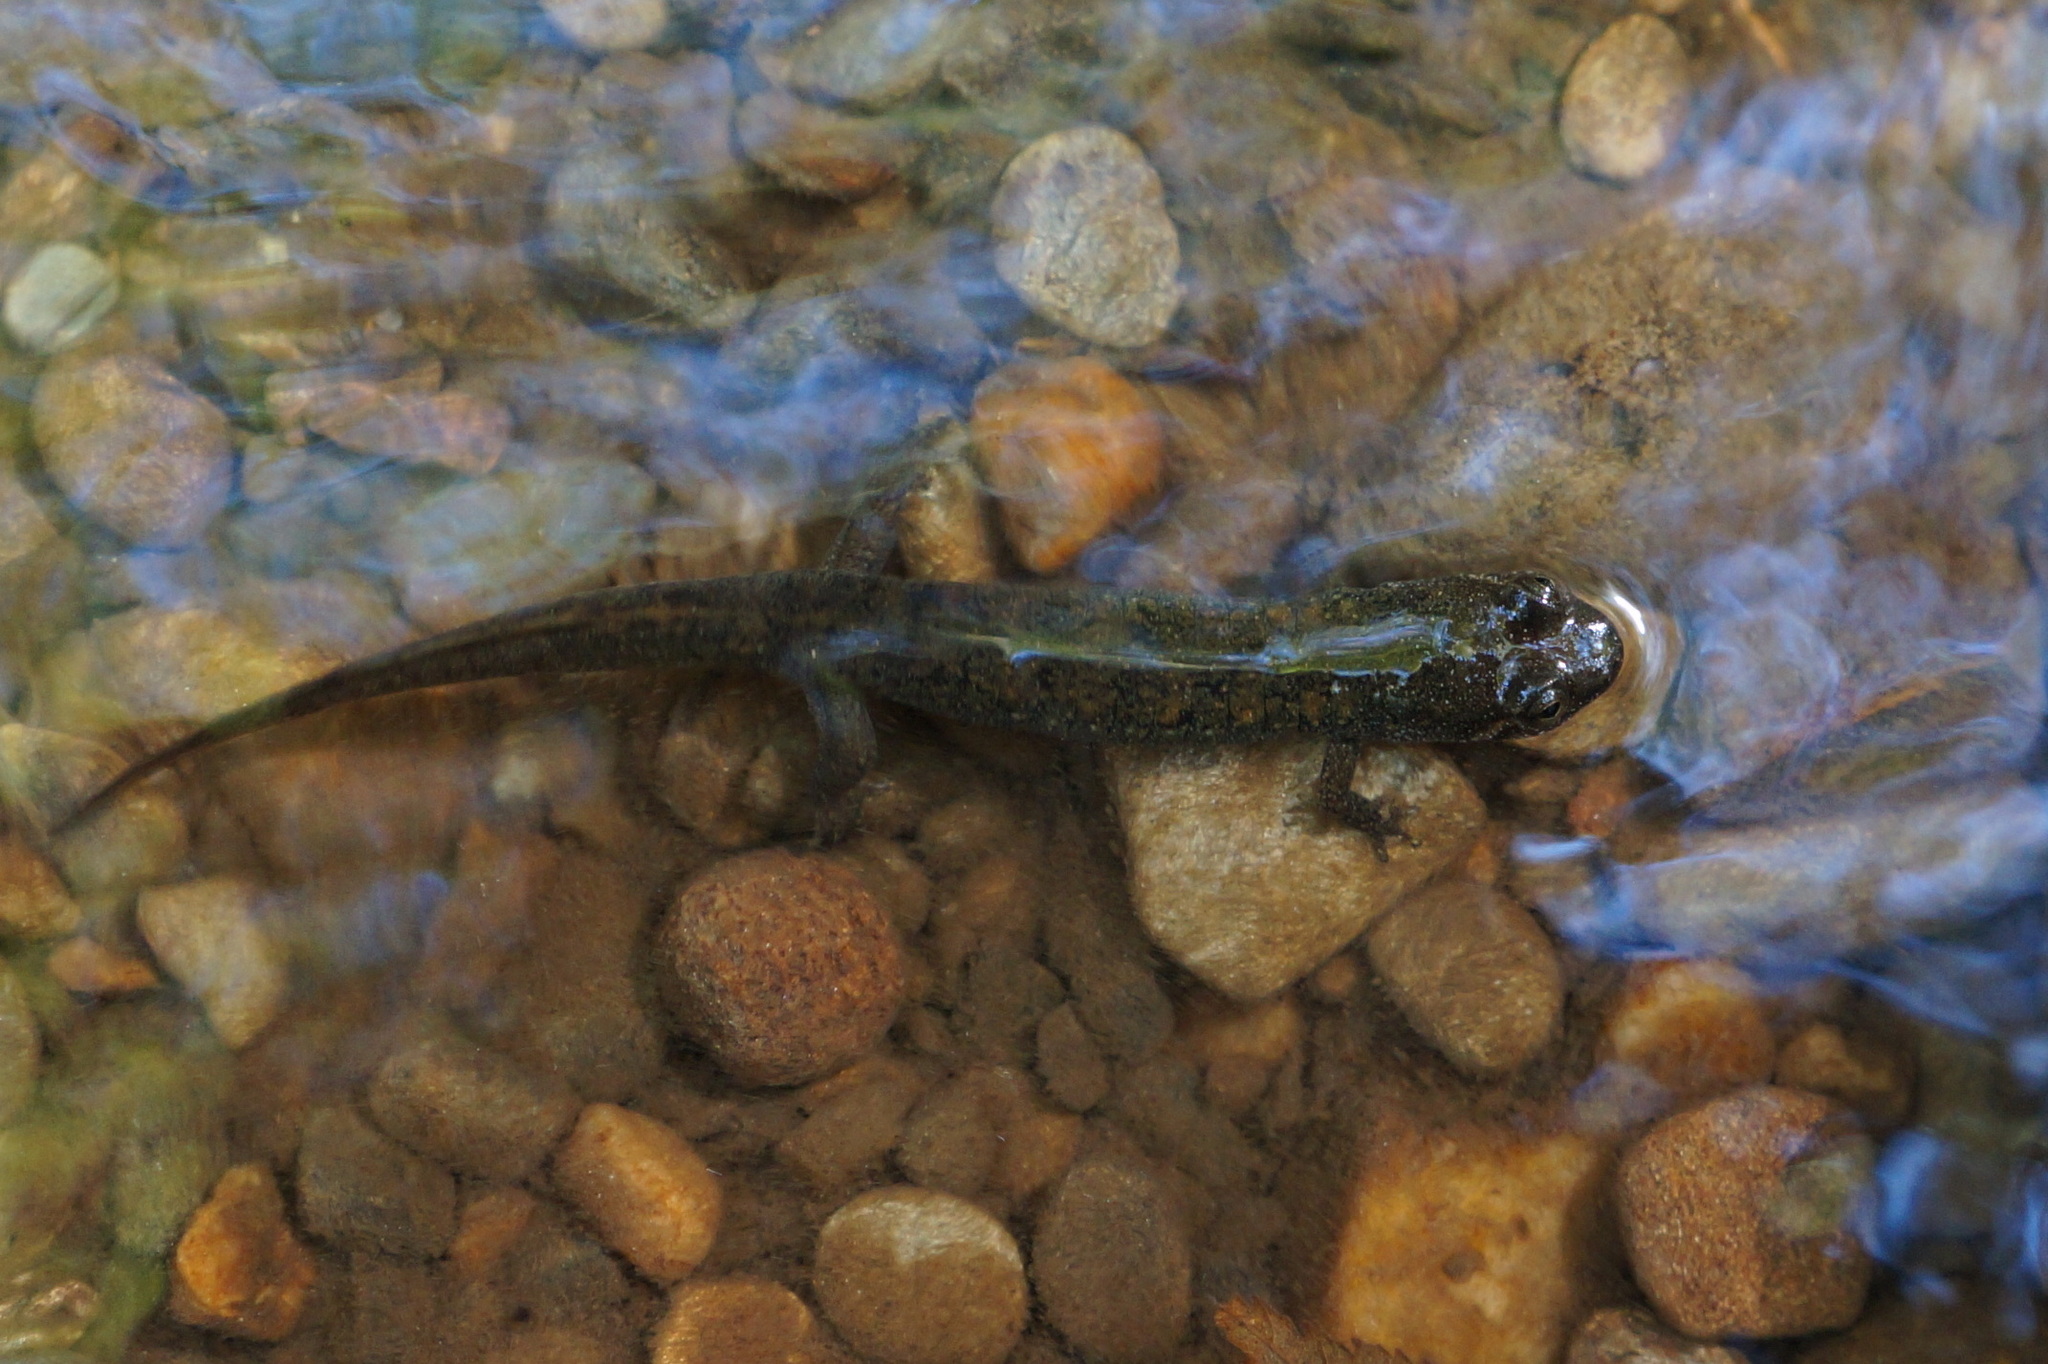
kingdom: Animalia
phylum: Chordata
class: Amphibia
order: Caudata
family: Plethodontidae
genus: Desmognathus
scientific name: Desmognathus
